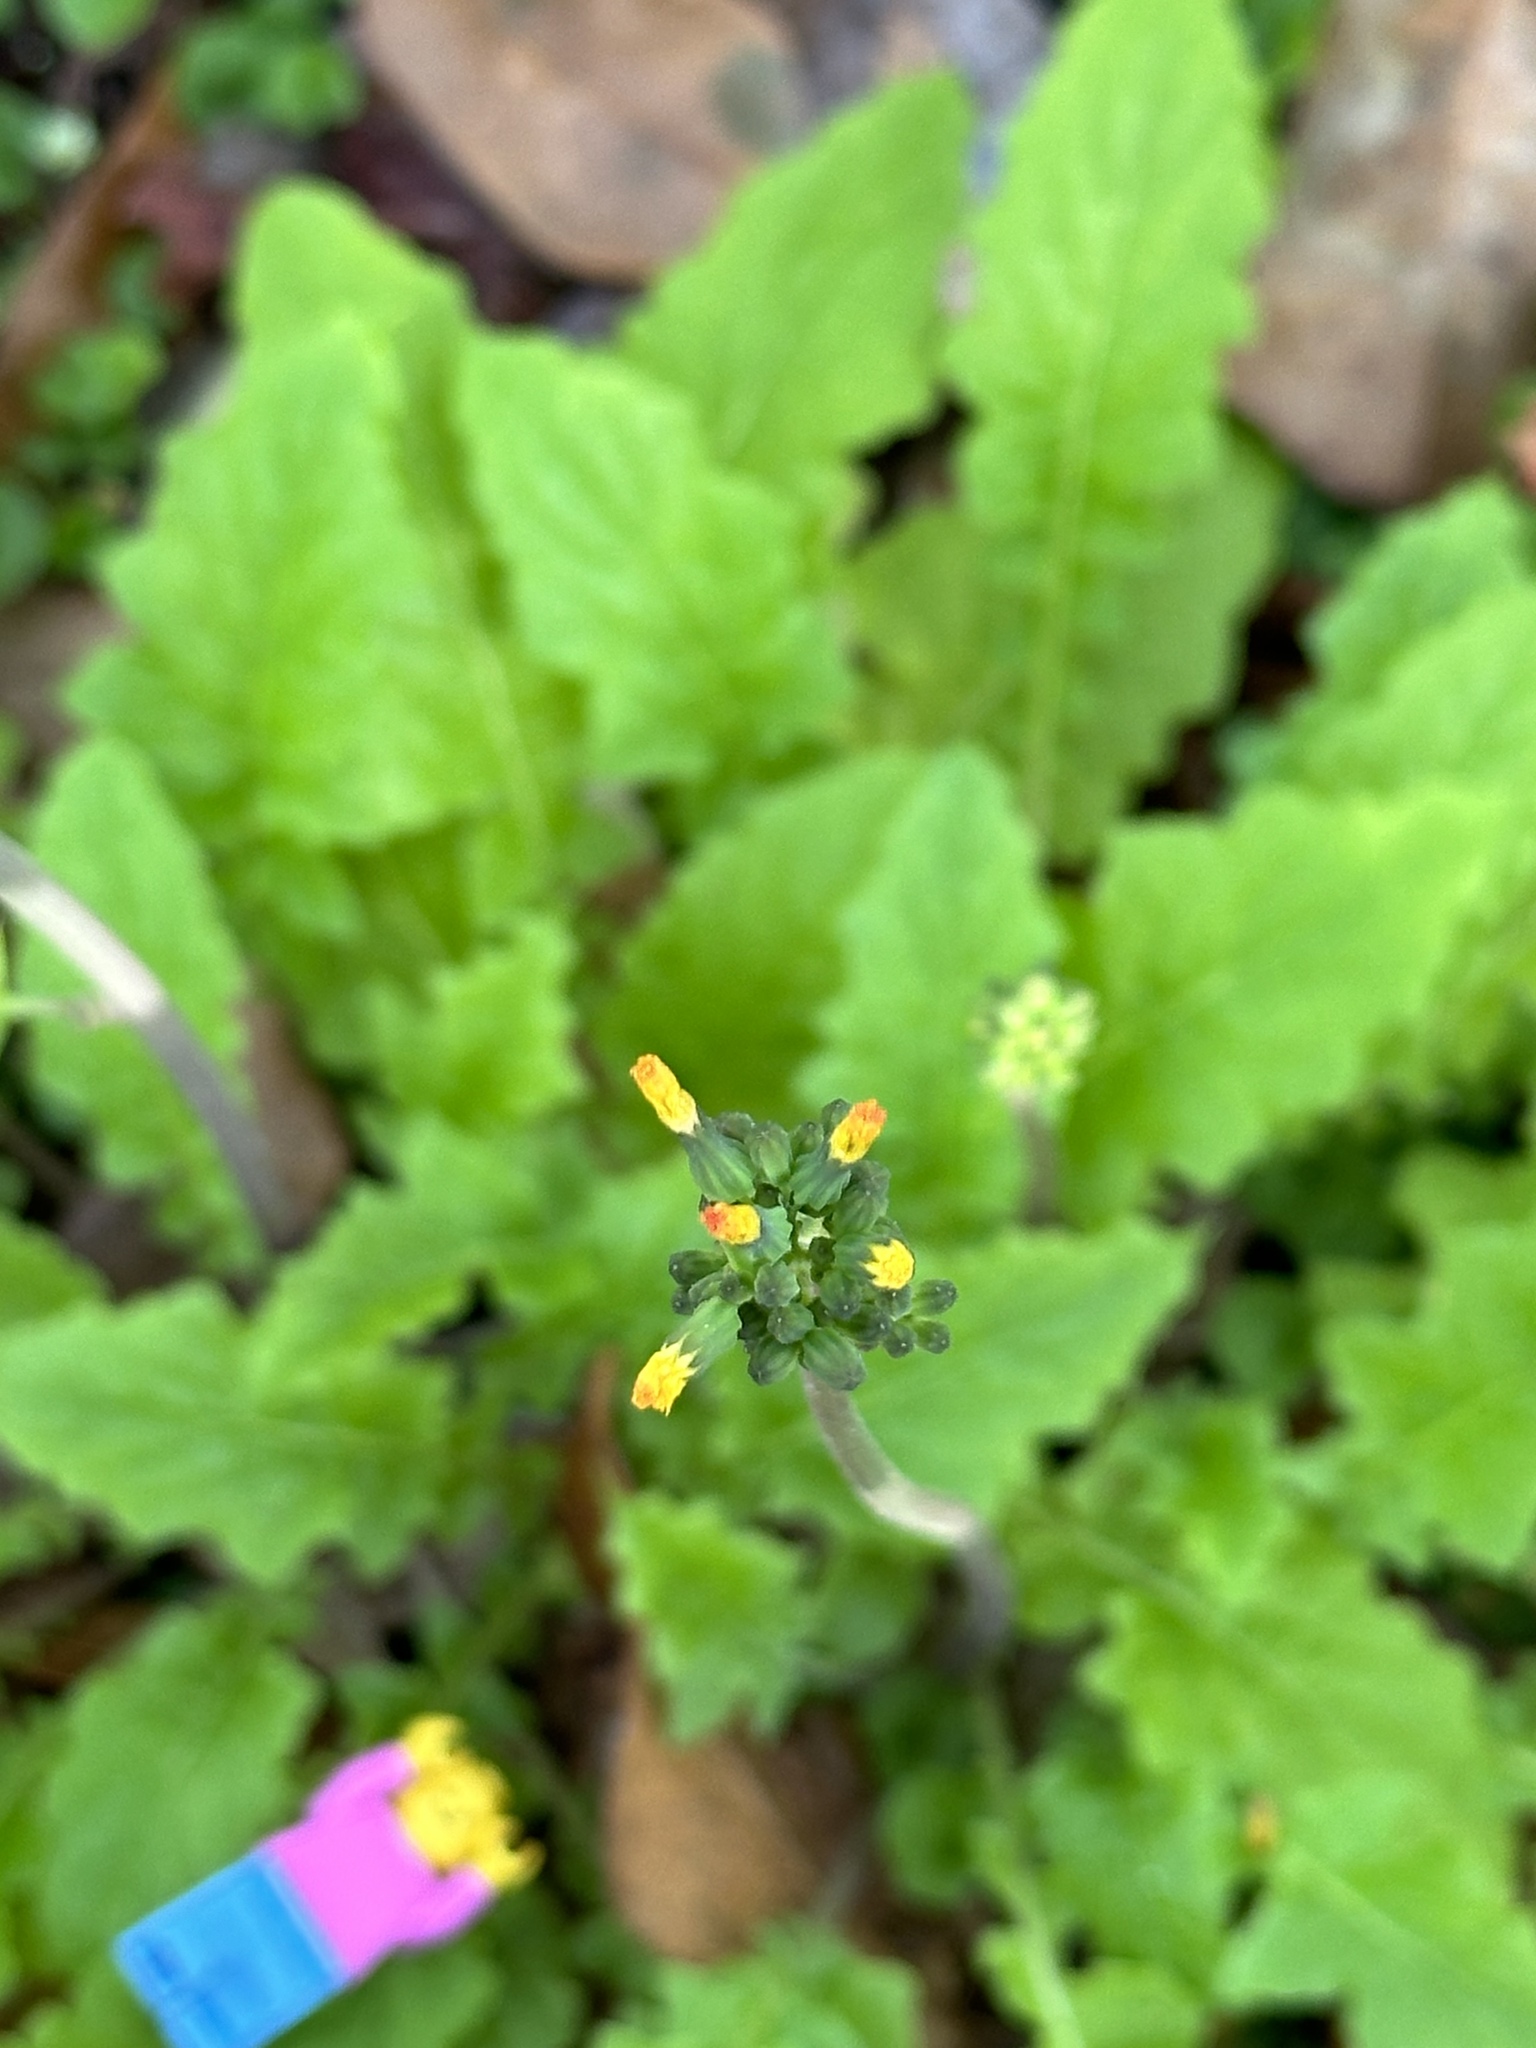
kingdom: Plantae
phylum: Tracheophyta
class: Magnoliopsida
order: Asterales
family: Asteraceae
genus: Youngia
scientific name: Youngia japonica
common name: Oriental false hawksbeard
